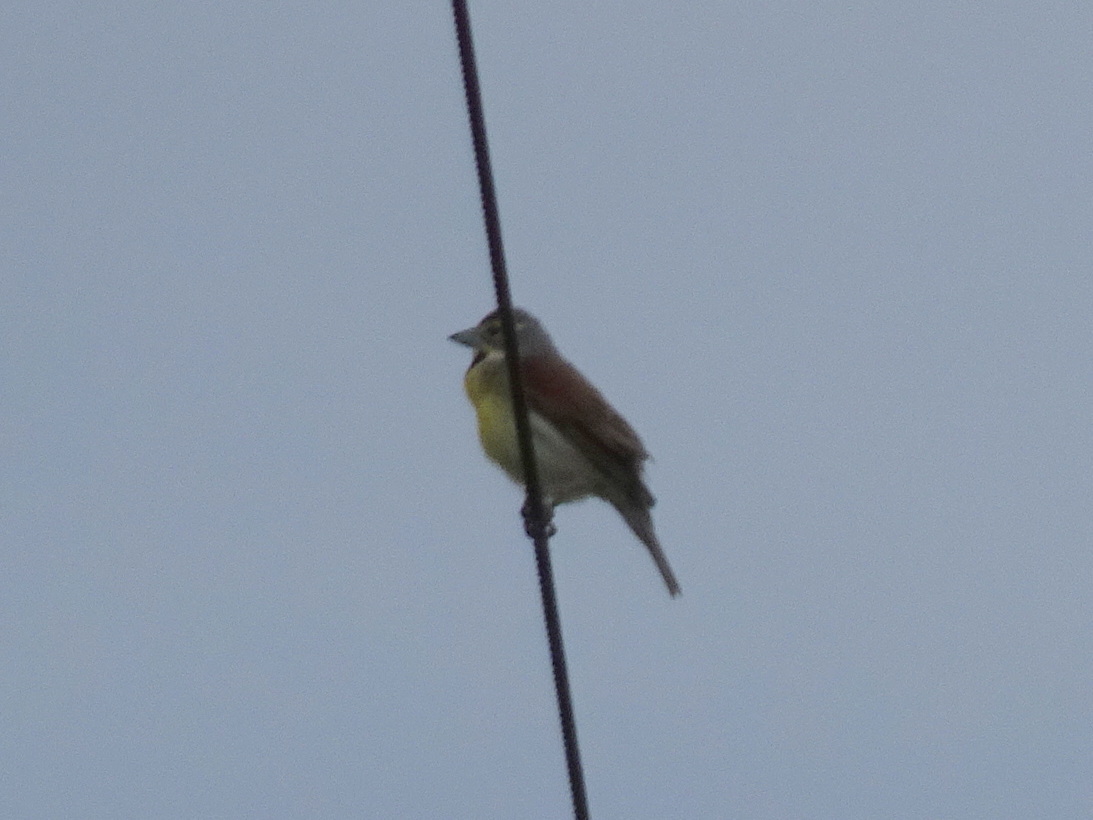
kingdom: Animalia
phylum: Chordata
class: Aves
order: Passeriformes
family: Cardinalidae
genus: Spiza
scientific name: Spiza americana
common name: Dickcissel
